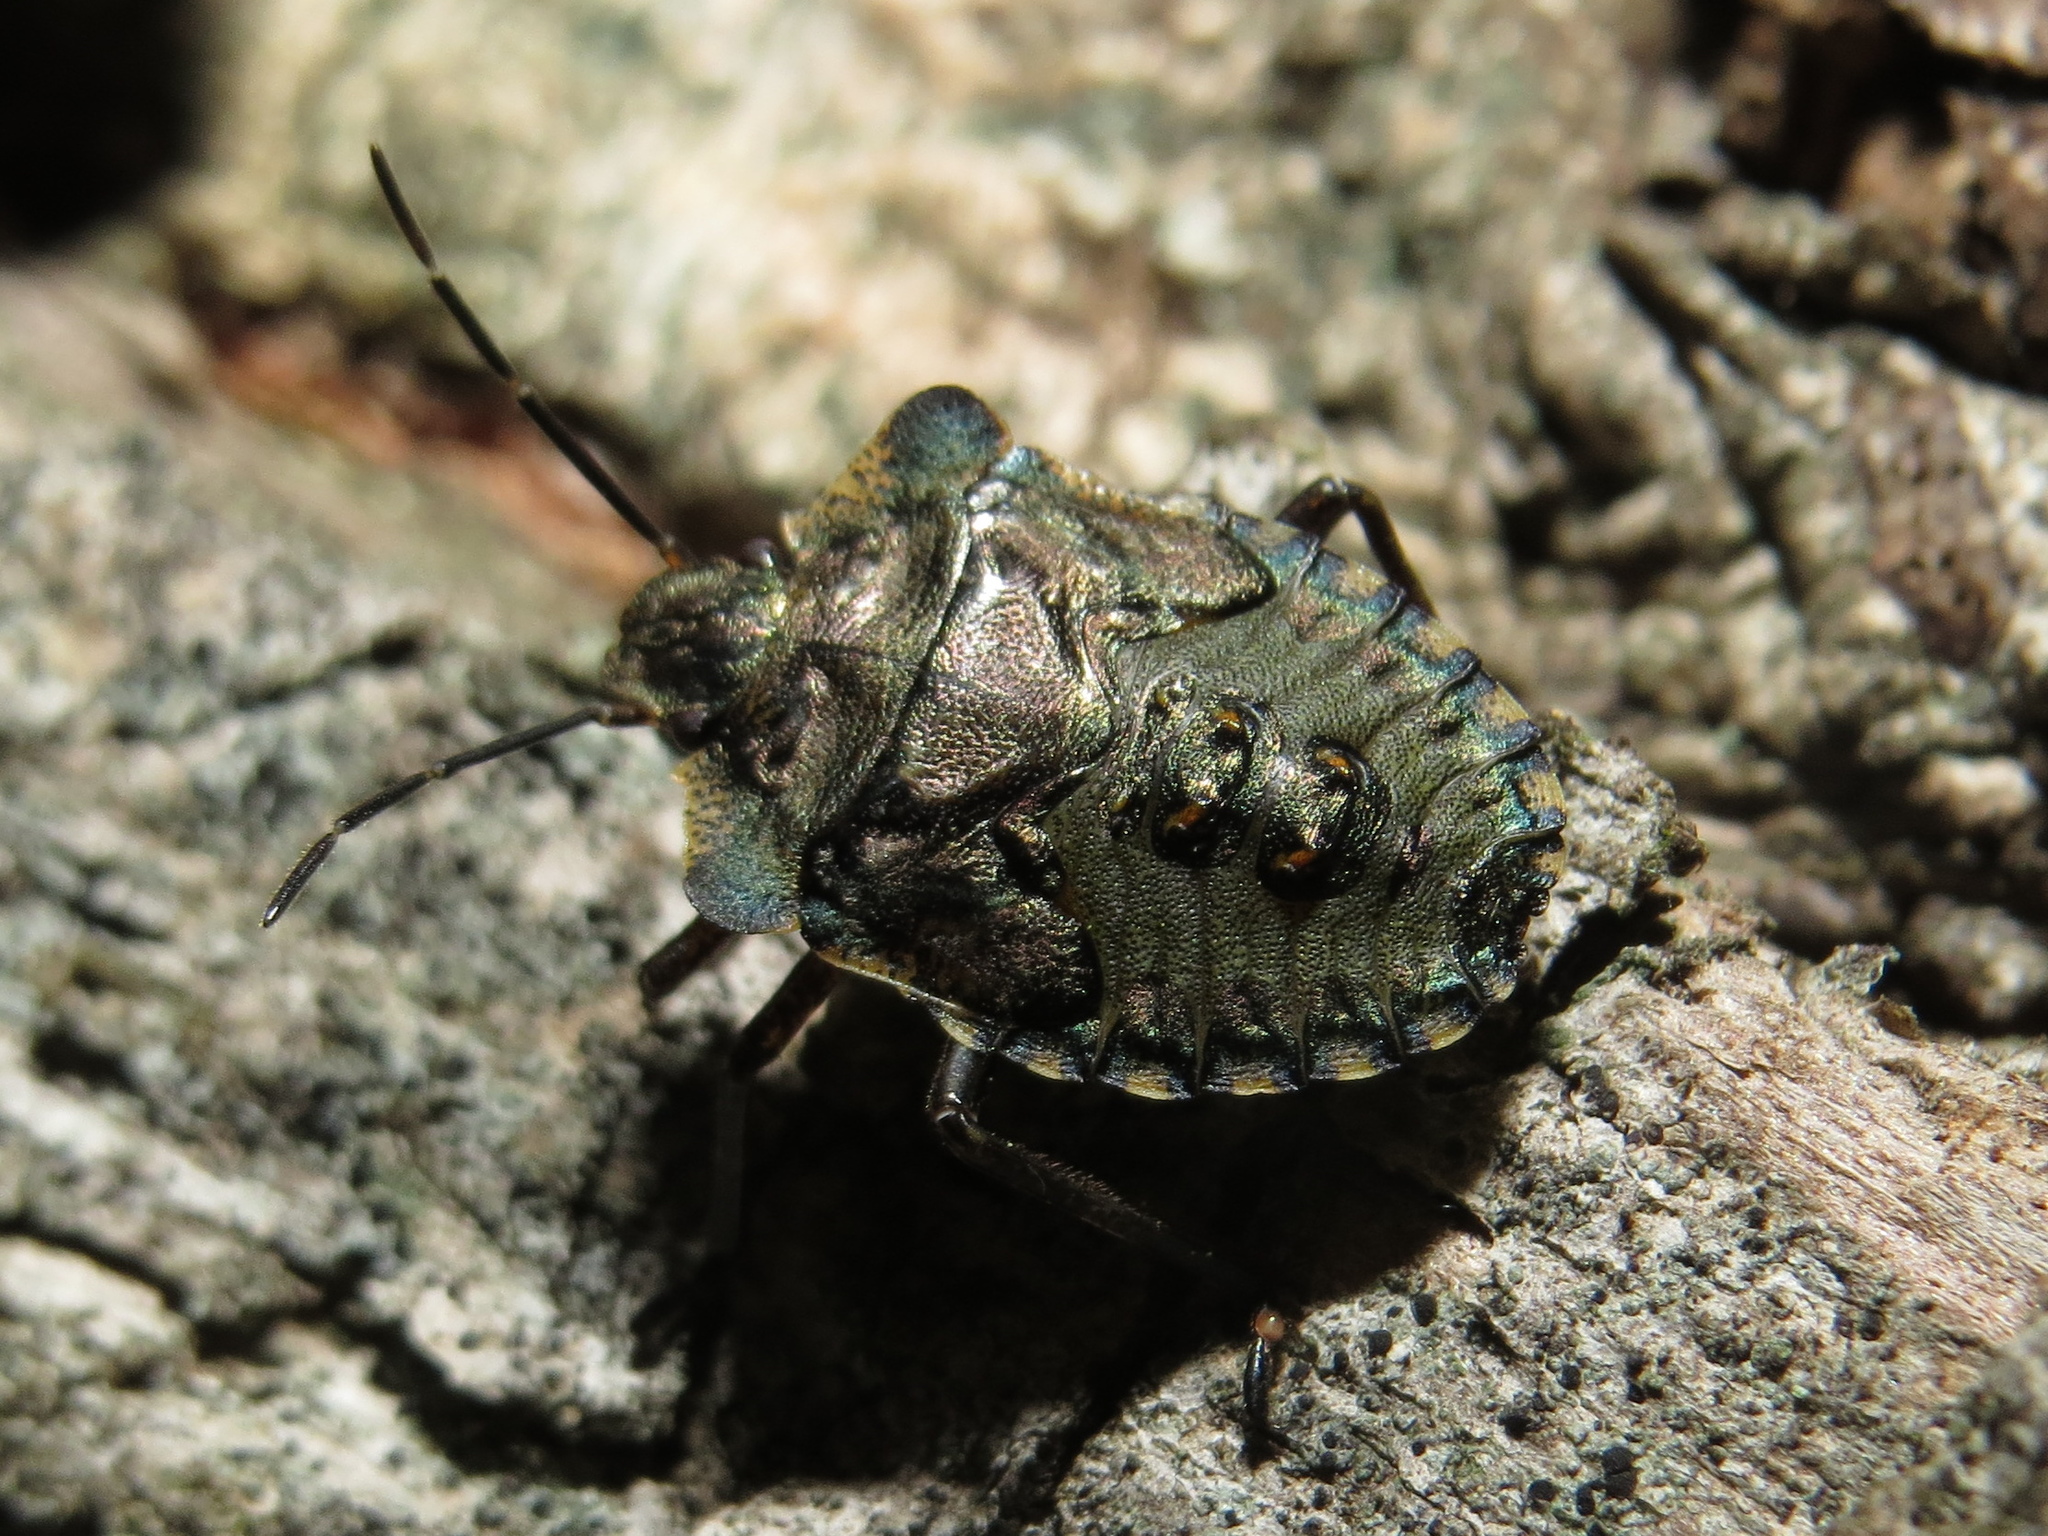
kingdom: Animalia
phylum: Arthropoda
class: Insecta
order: Hemiptera
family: Pentatomidae
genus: Pentatoma
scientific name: Pentatoma rufipes
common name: Forest bug
